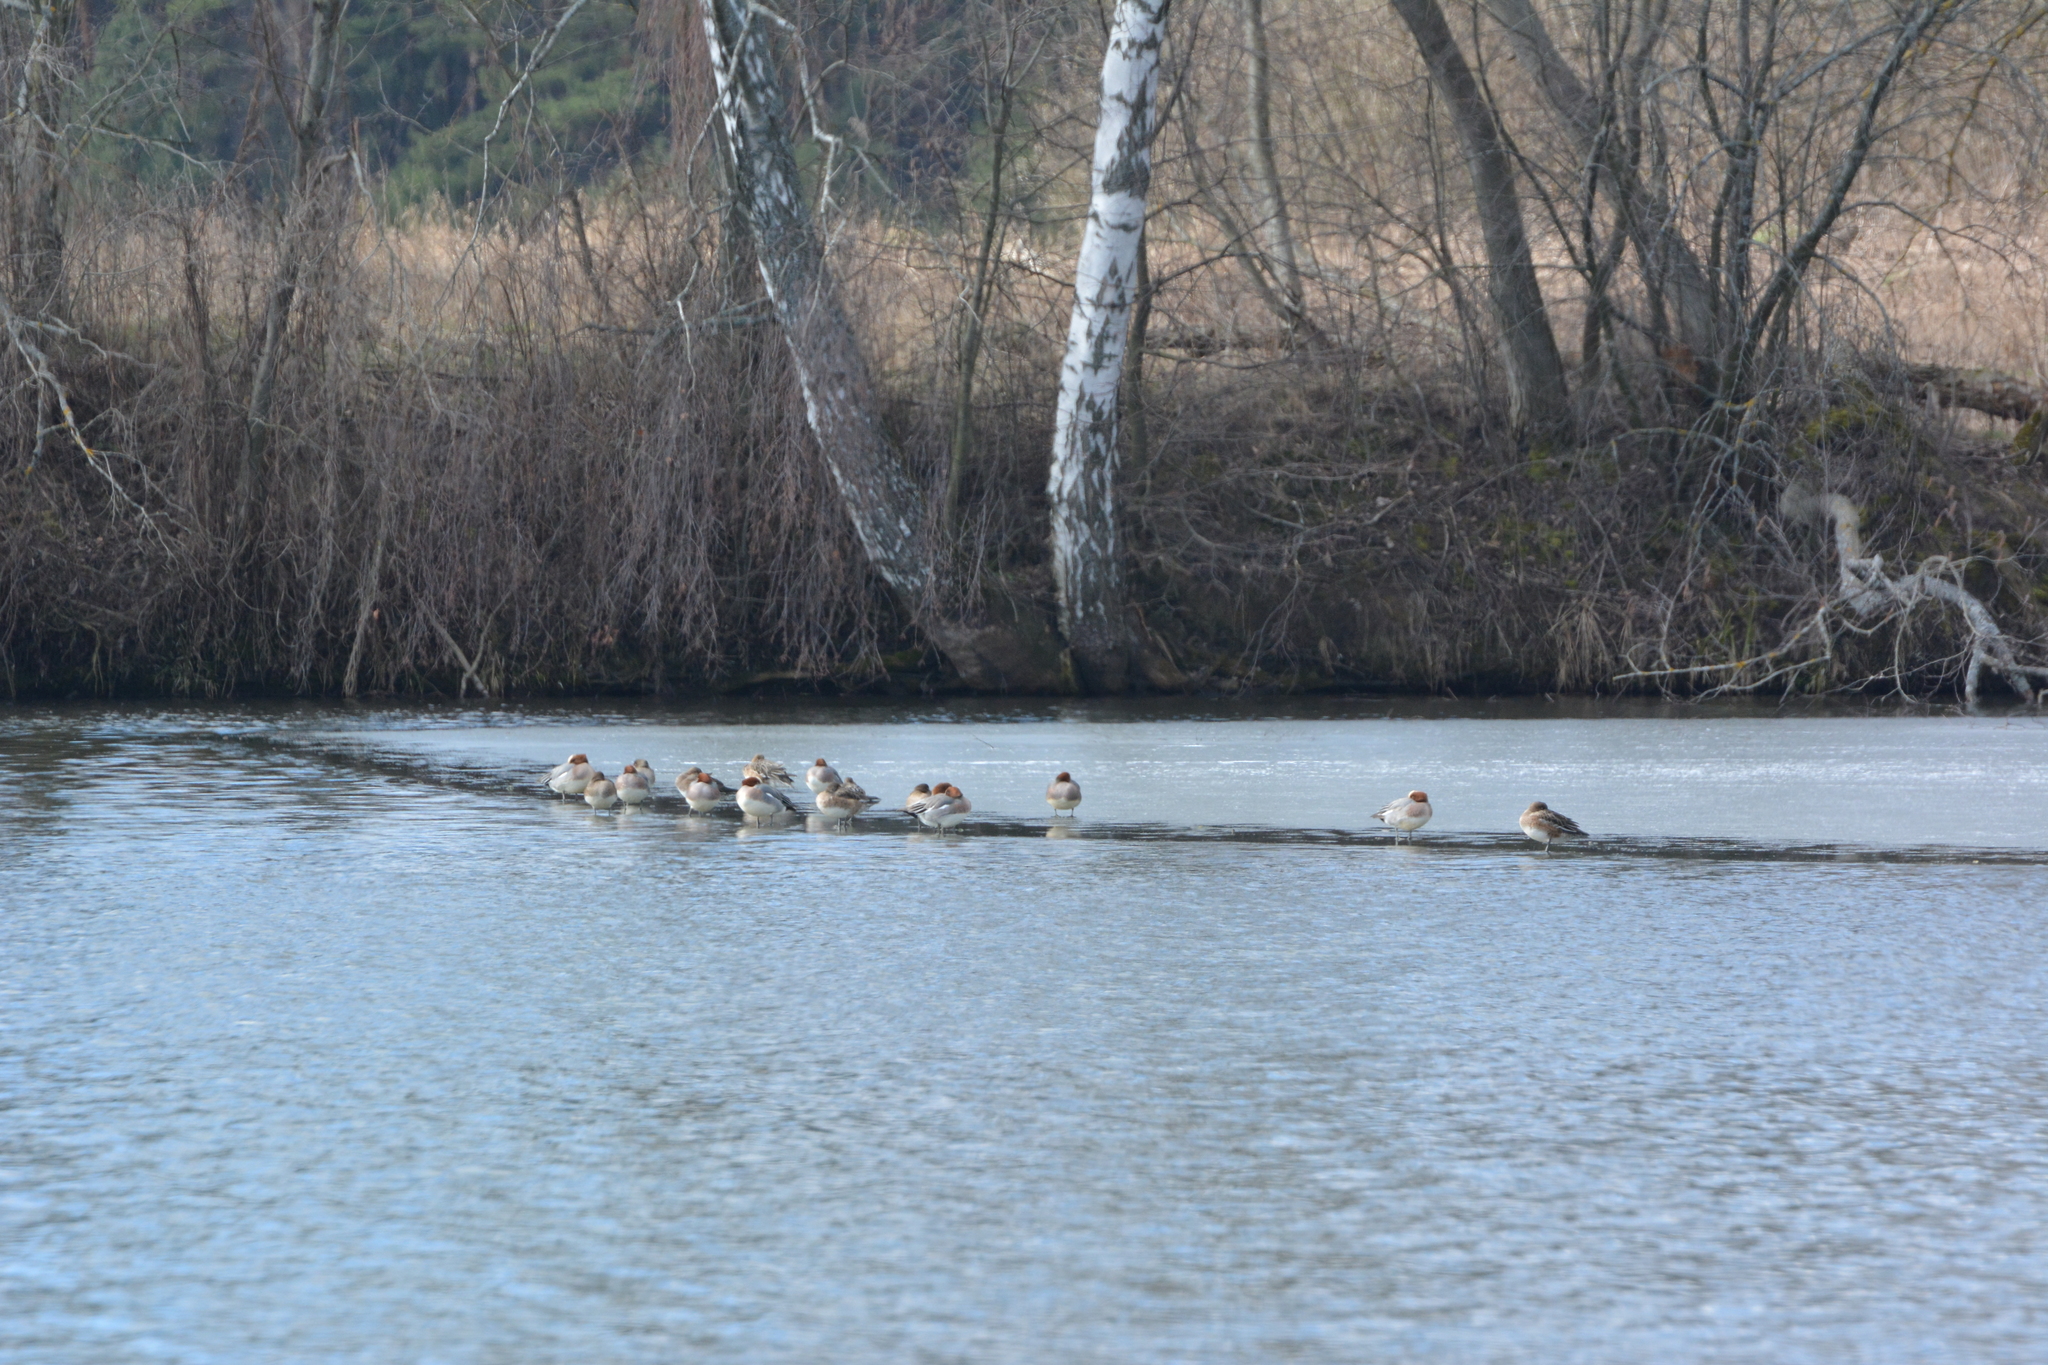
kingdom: Animalia
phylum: Chordata
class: Aves
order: Anseriformes
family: Anatidae
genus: Mareca
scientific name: Mareca penelope
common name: Eurasian wigeon
